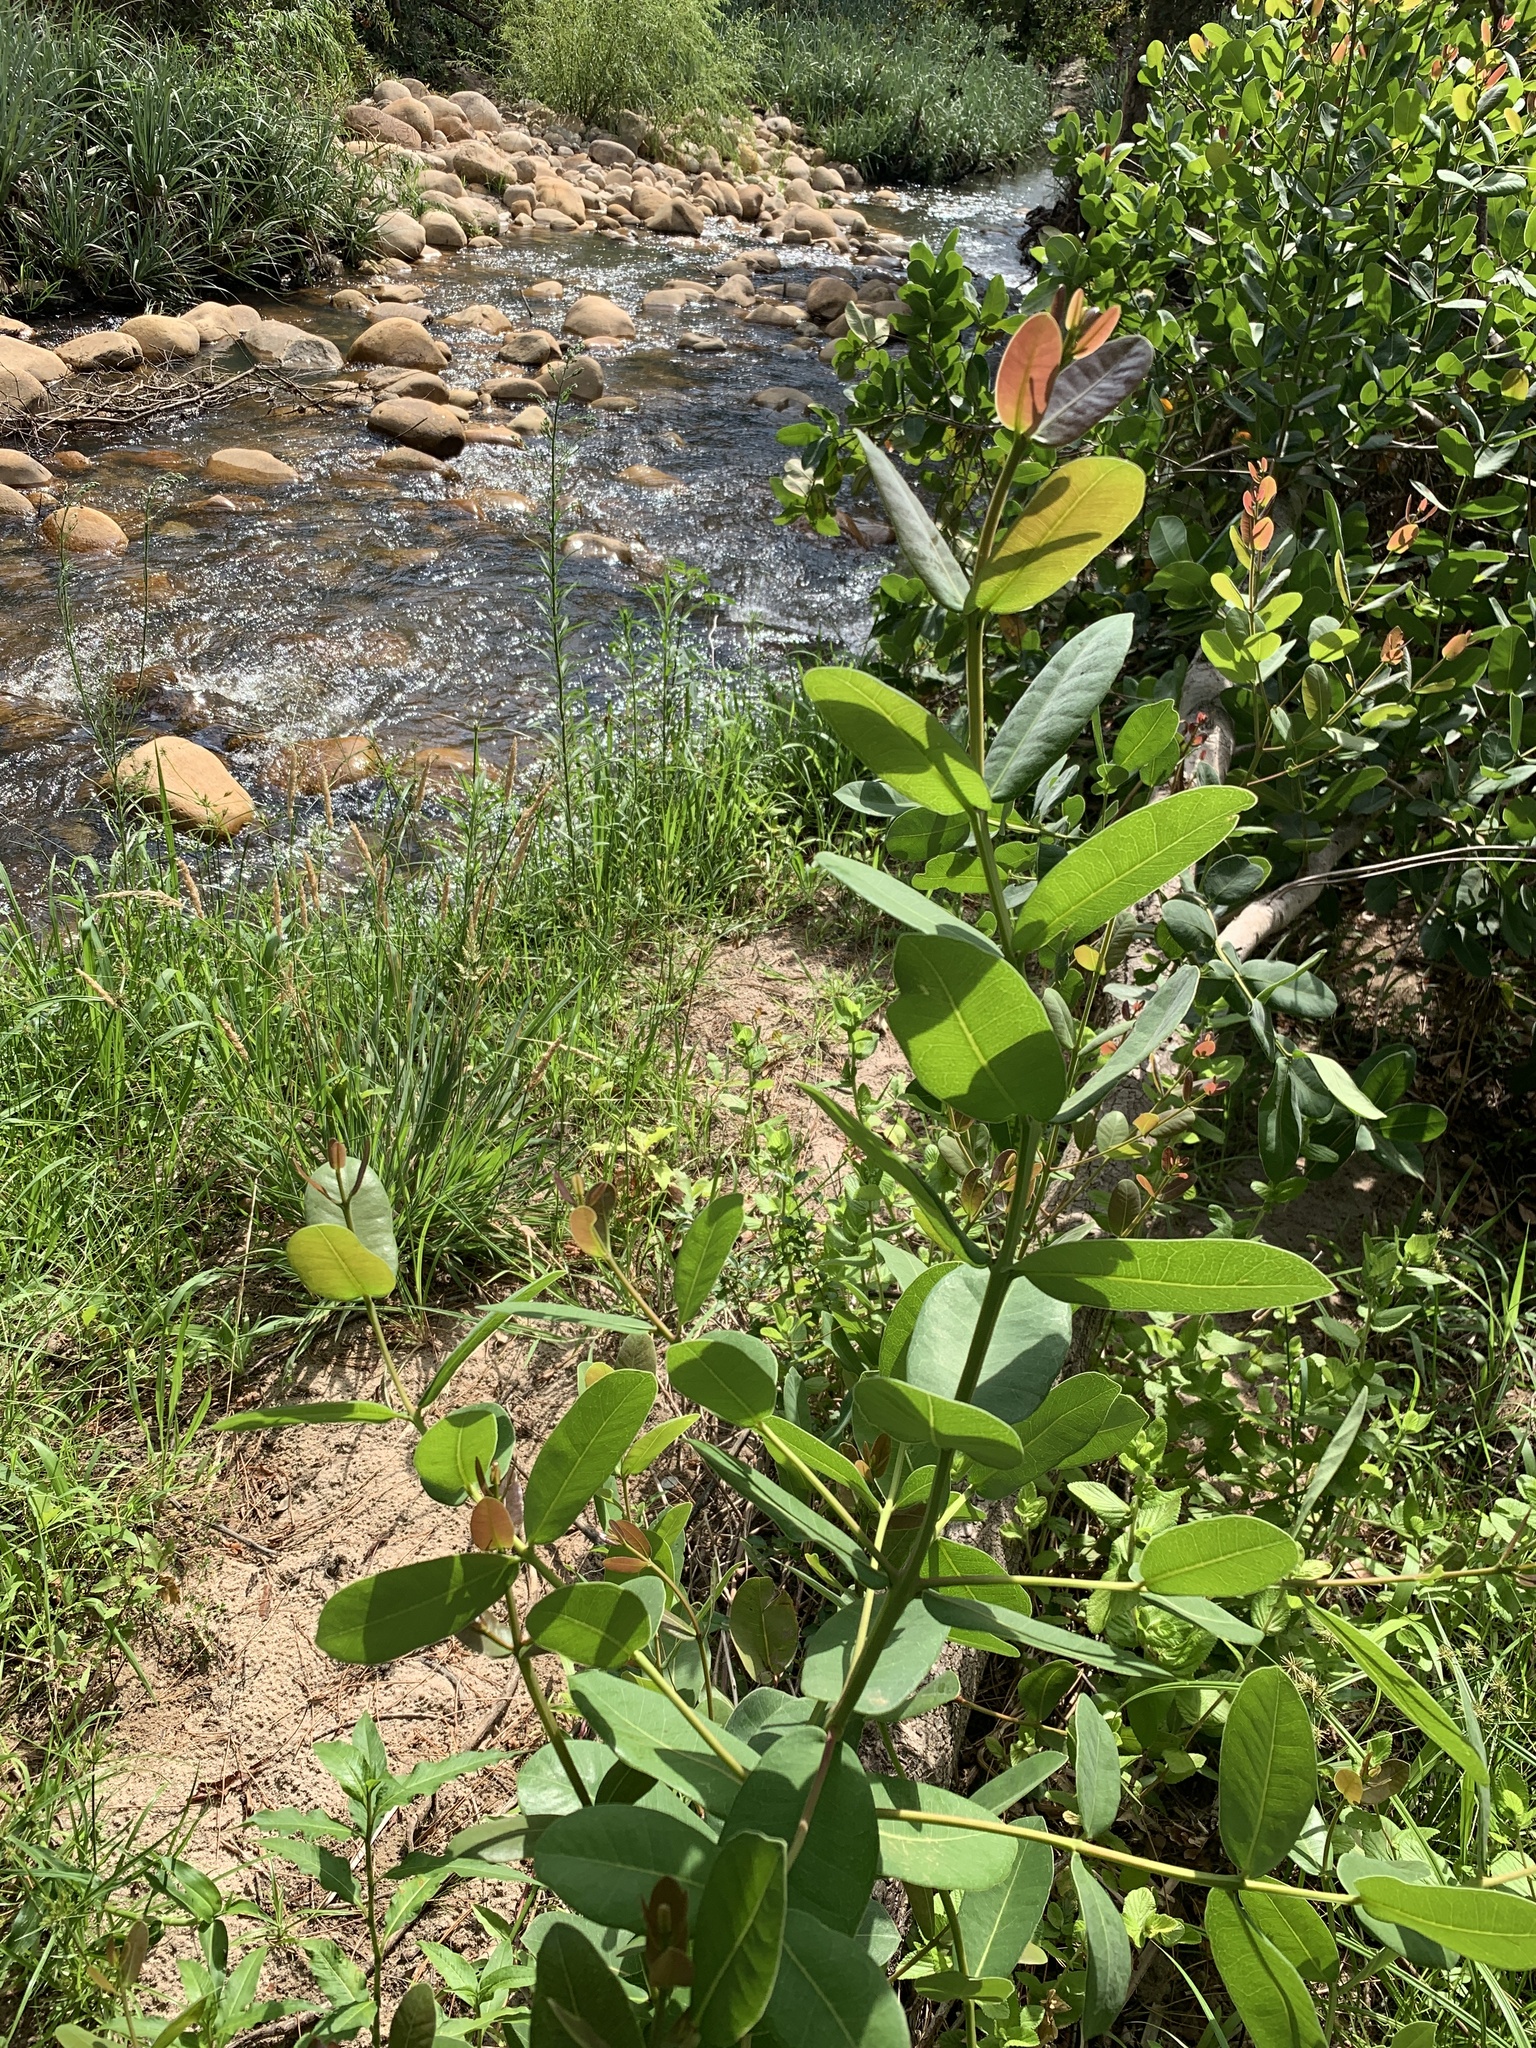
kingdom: Plantae
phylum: Tracheophyta
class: Magnoliopsida
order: Myrtales
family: Myrtaceae
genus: Syzygium
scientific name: Syzygium cordatum
